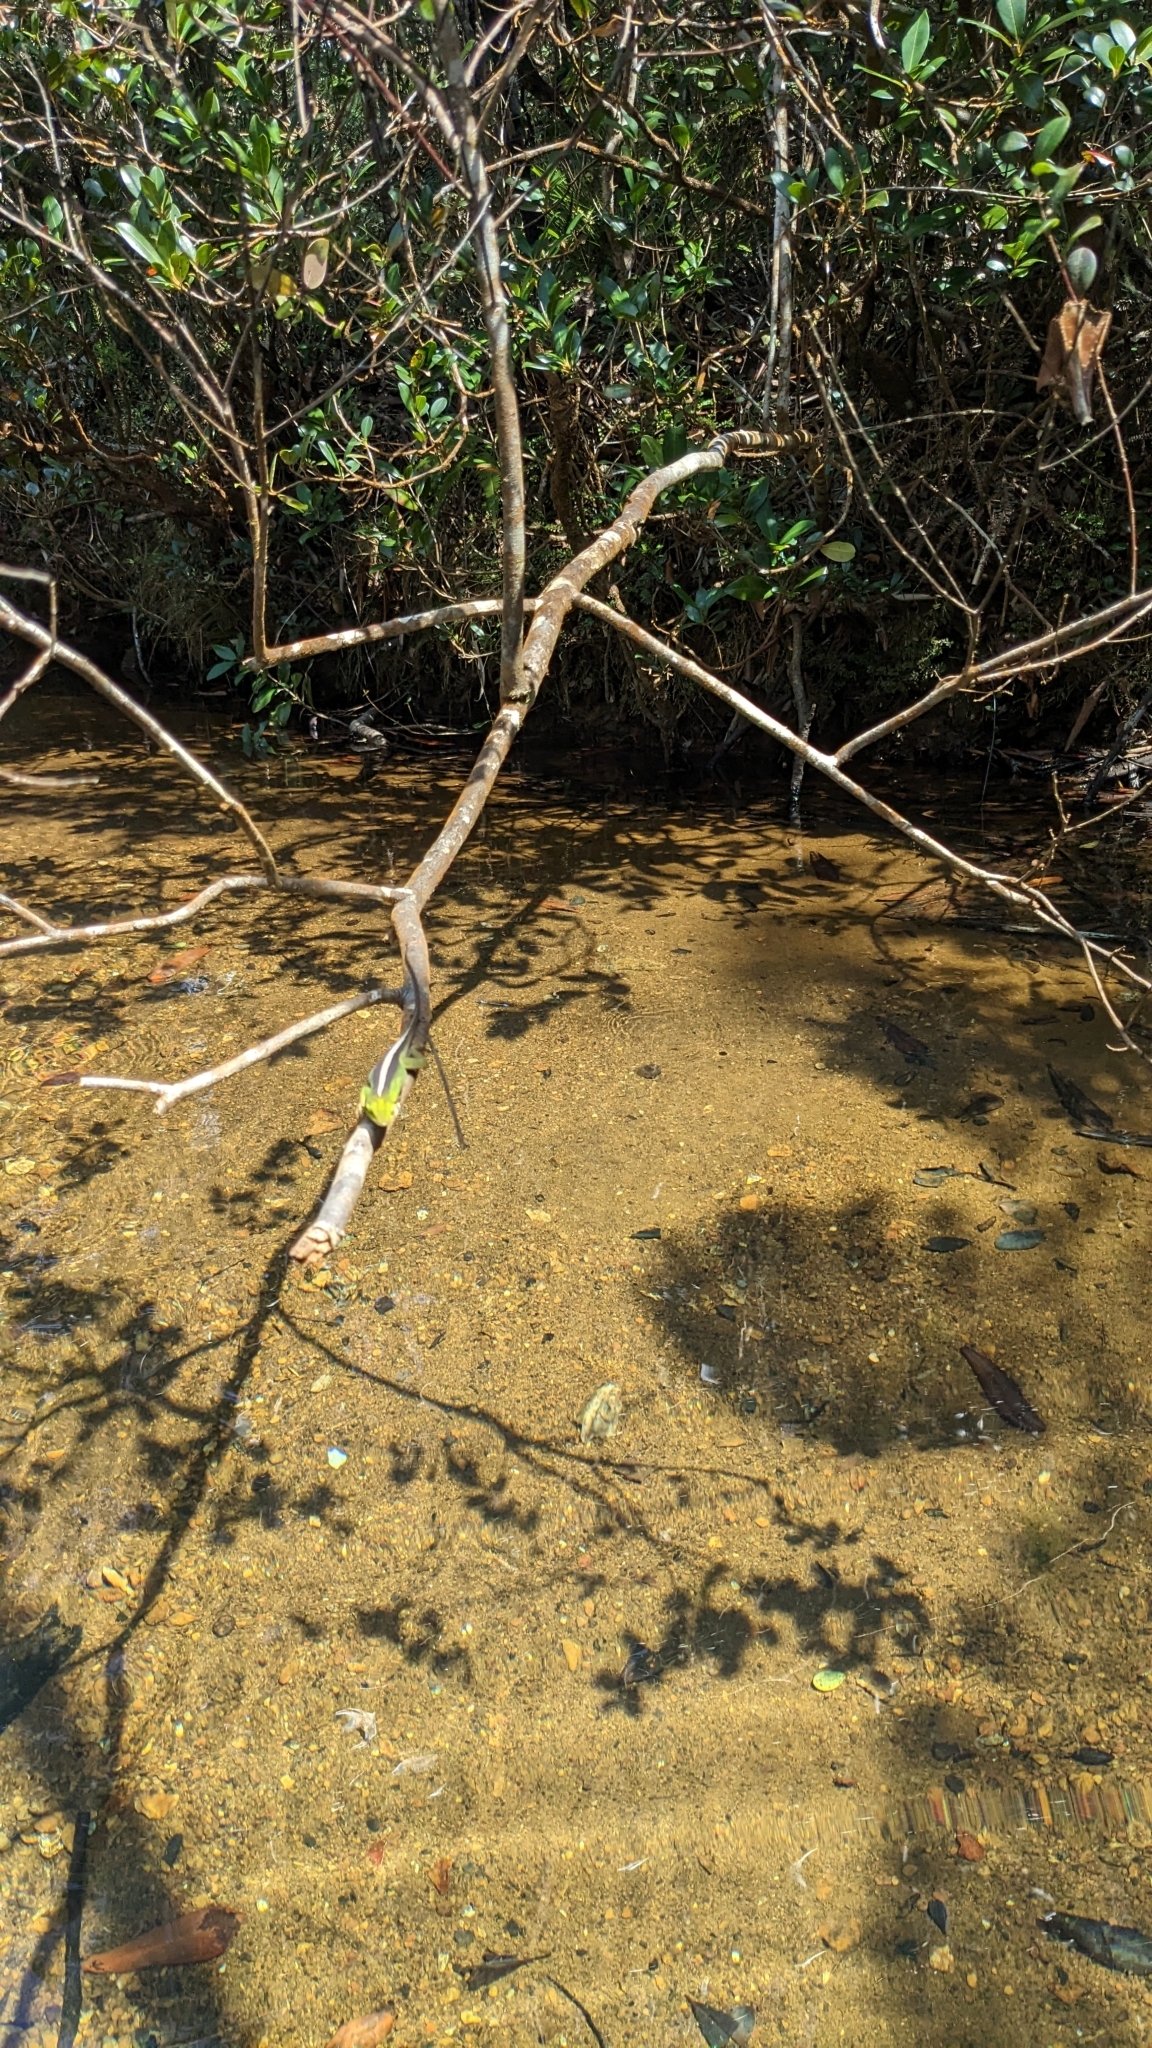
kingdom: Animalia
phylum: Chordata
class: Squamata
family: Dactyloidae
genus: Anolis
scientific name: Anolis porcatus
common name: Cuban green anole
